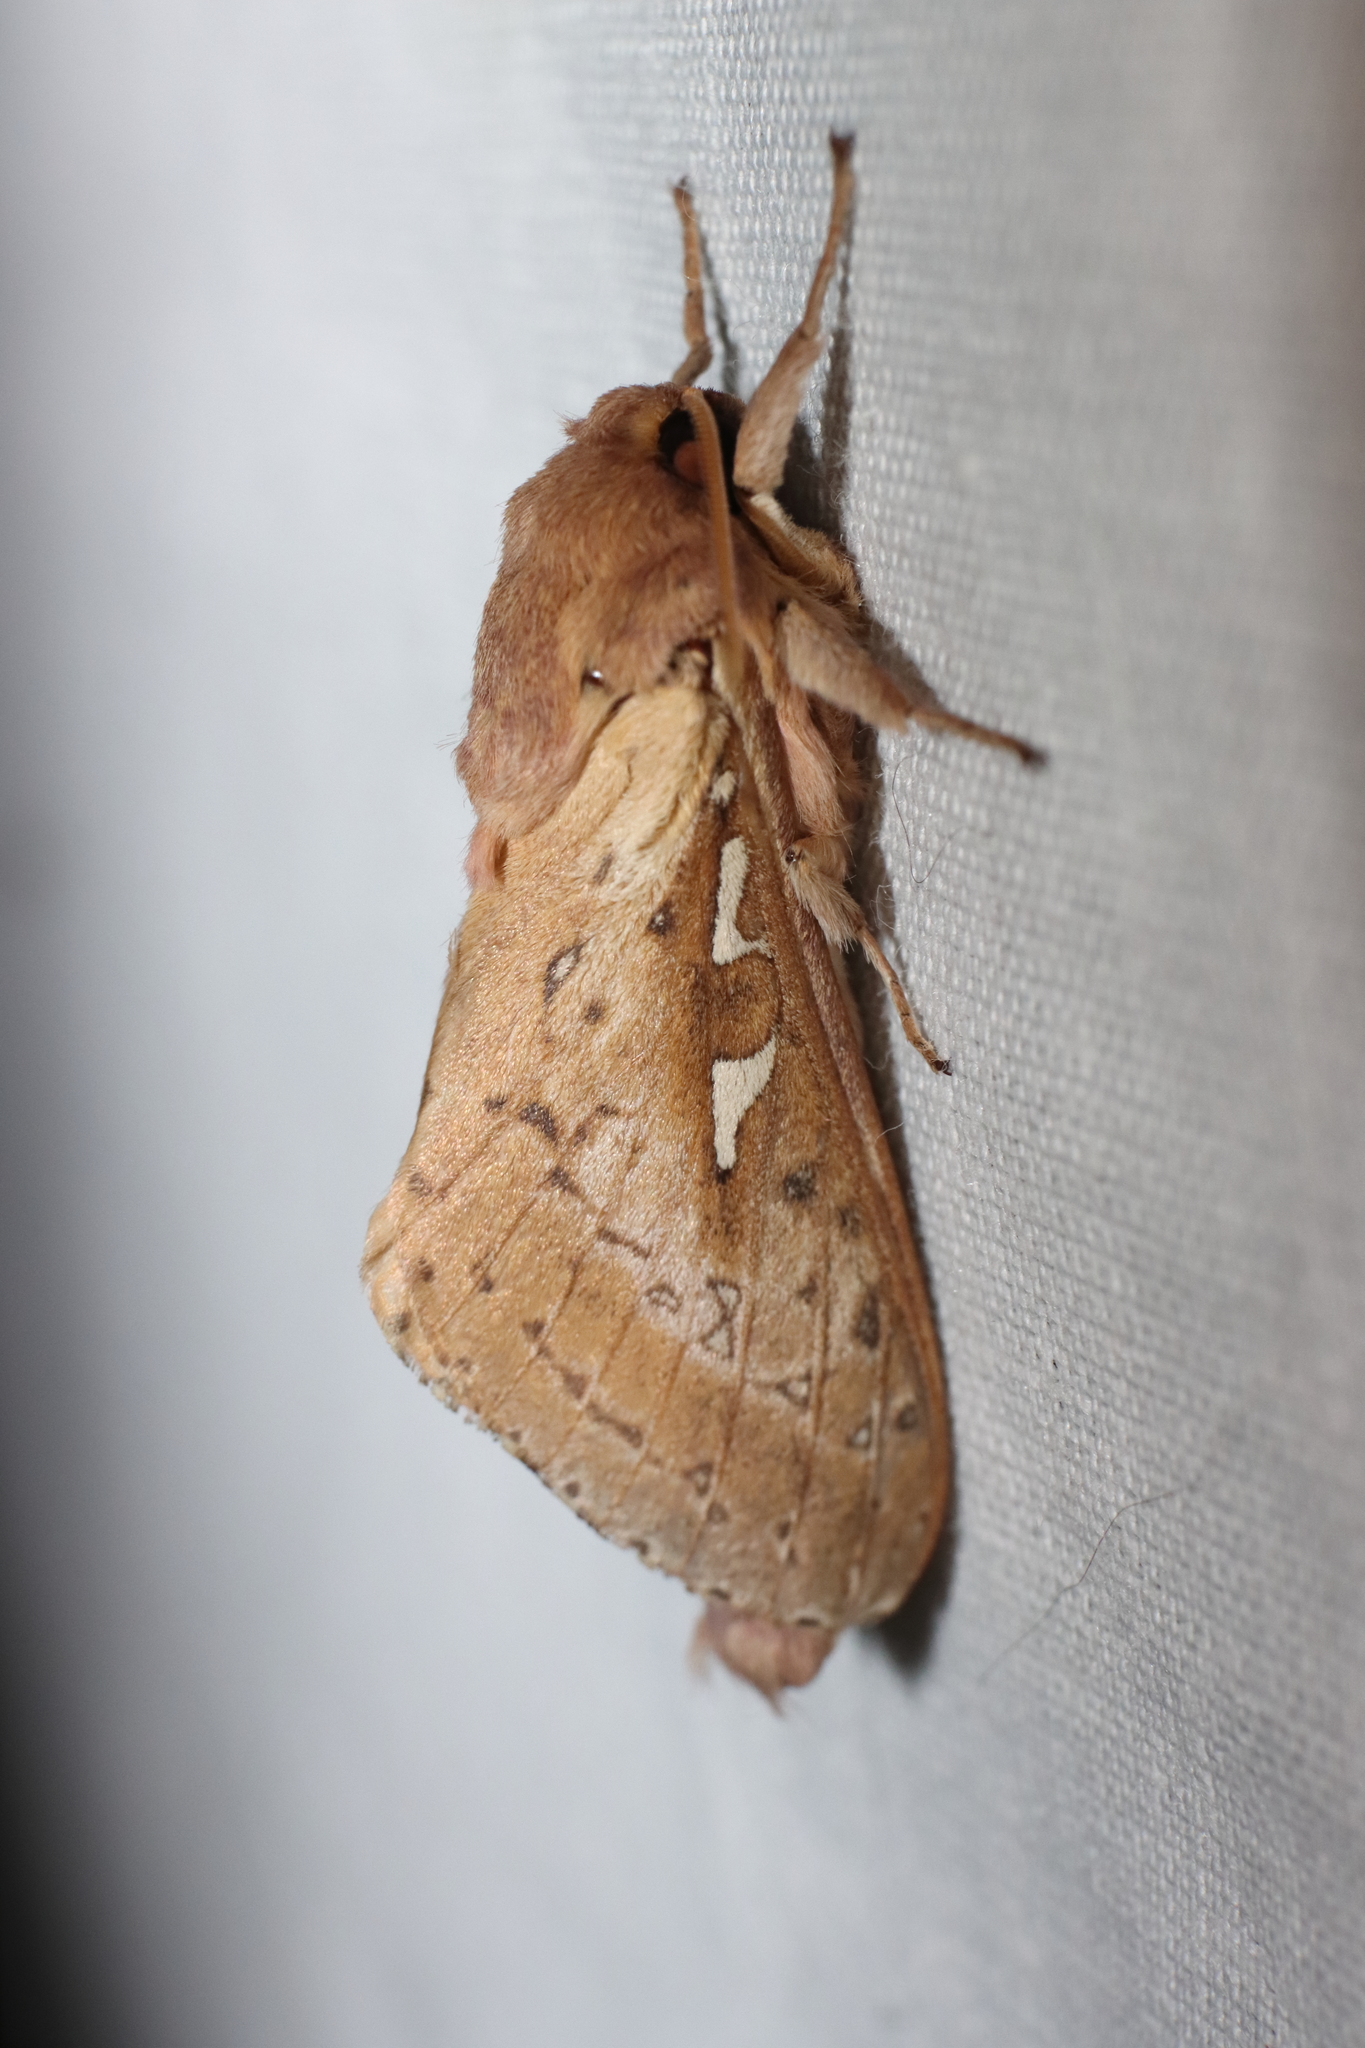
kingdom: Animalia
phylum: Arthropoda
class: Insecta
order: Lepidoptera
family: Hepialidae
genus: Wiseana
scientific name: Wiseana signata
